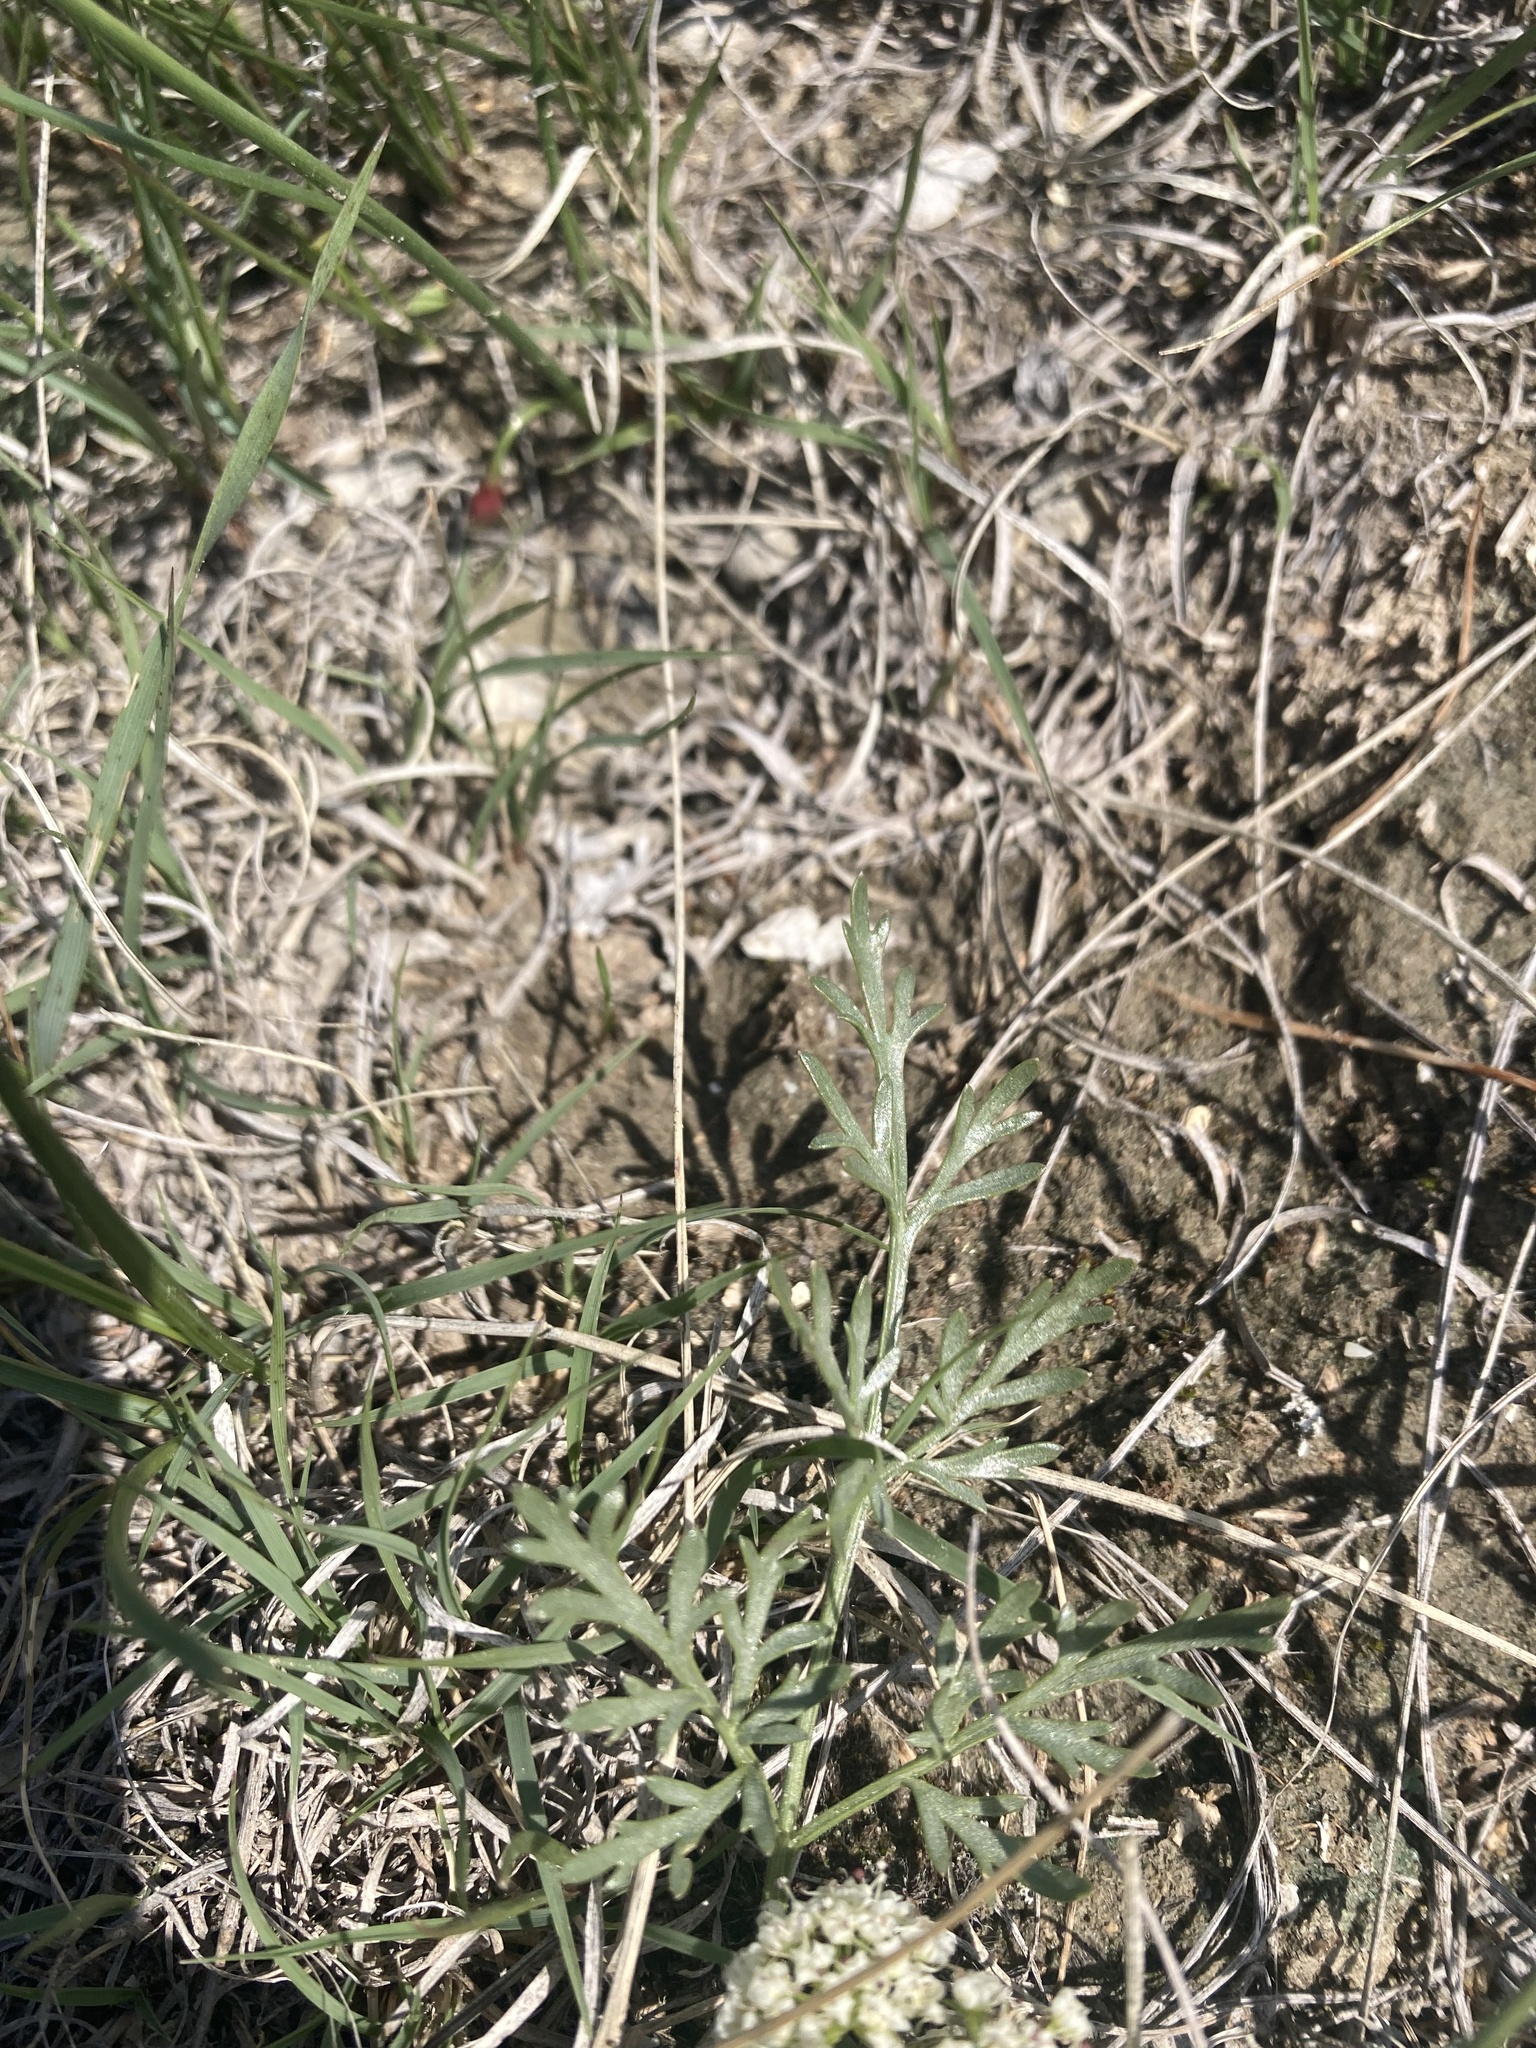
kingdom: Plantae
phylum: Tracheophyta
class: Magnoliopsida
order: Apiales
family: Apiaceae
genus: Cymopterus
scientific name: Cymopterus glomeratus
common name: Plains spring parsley
